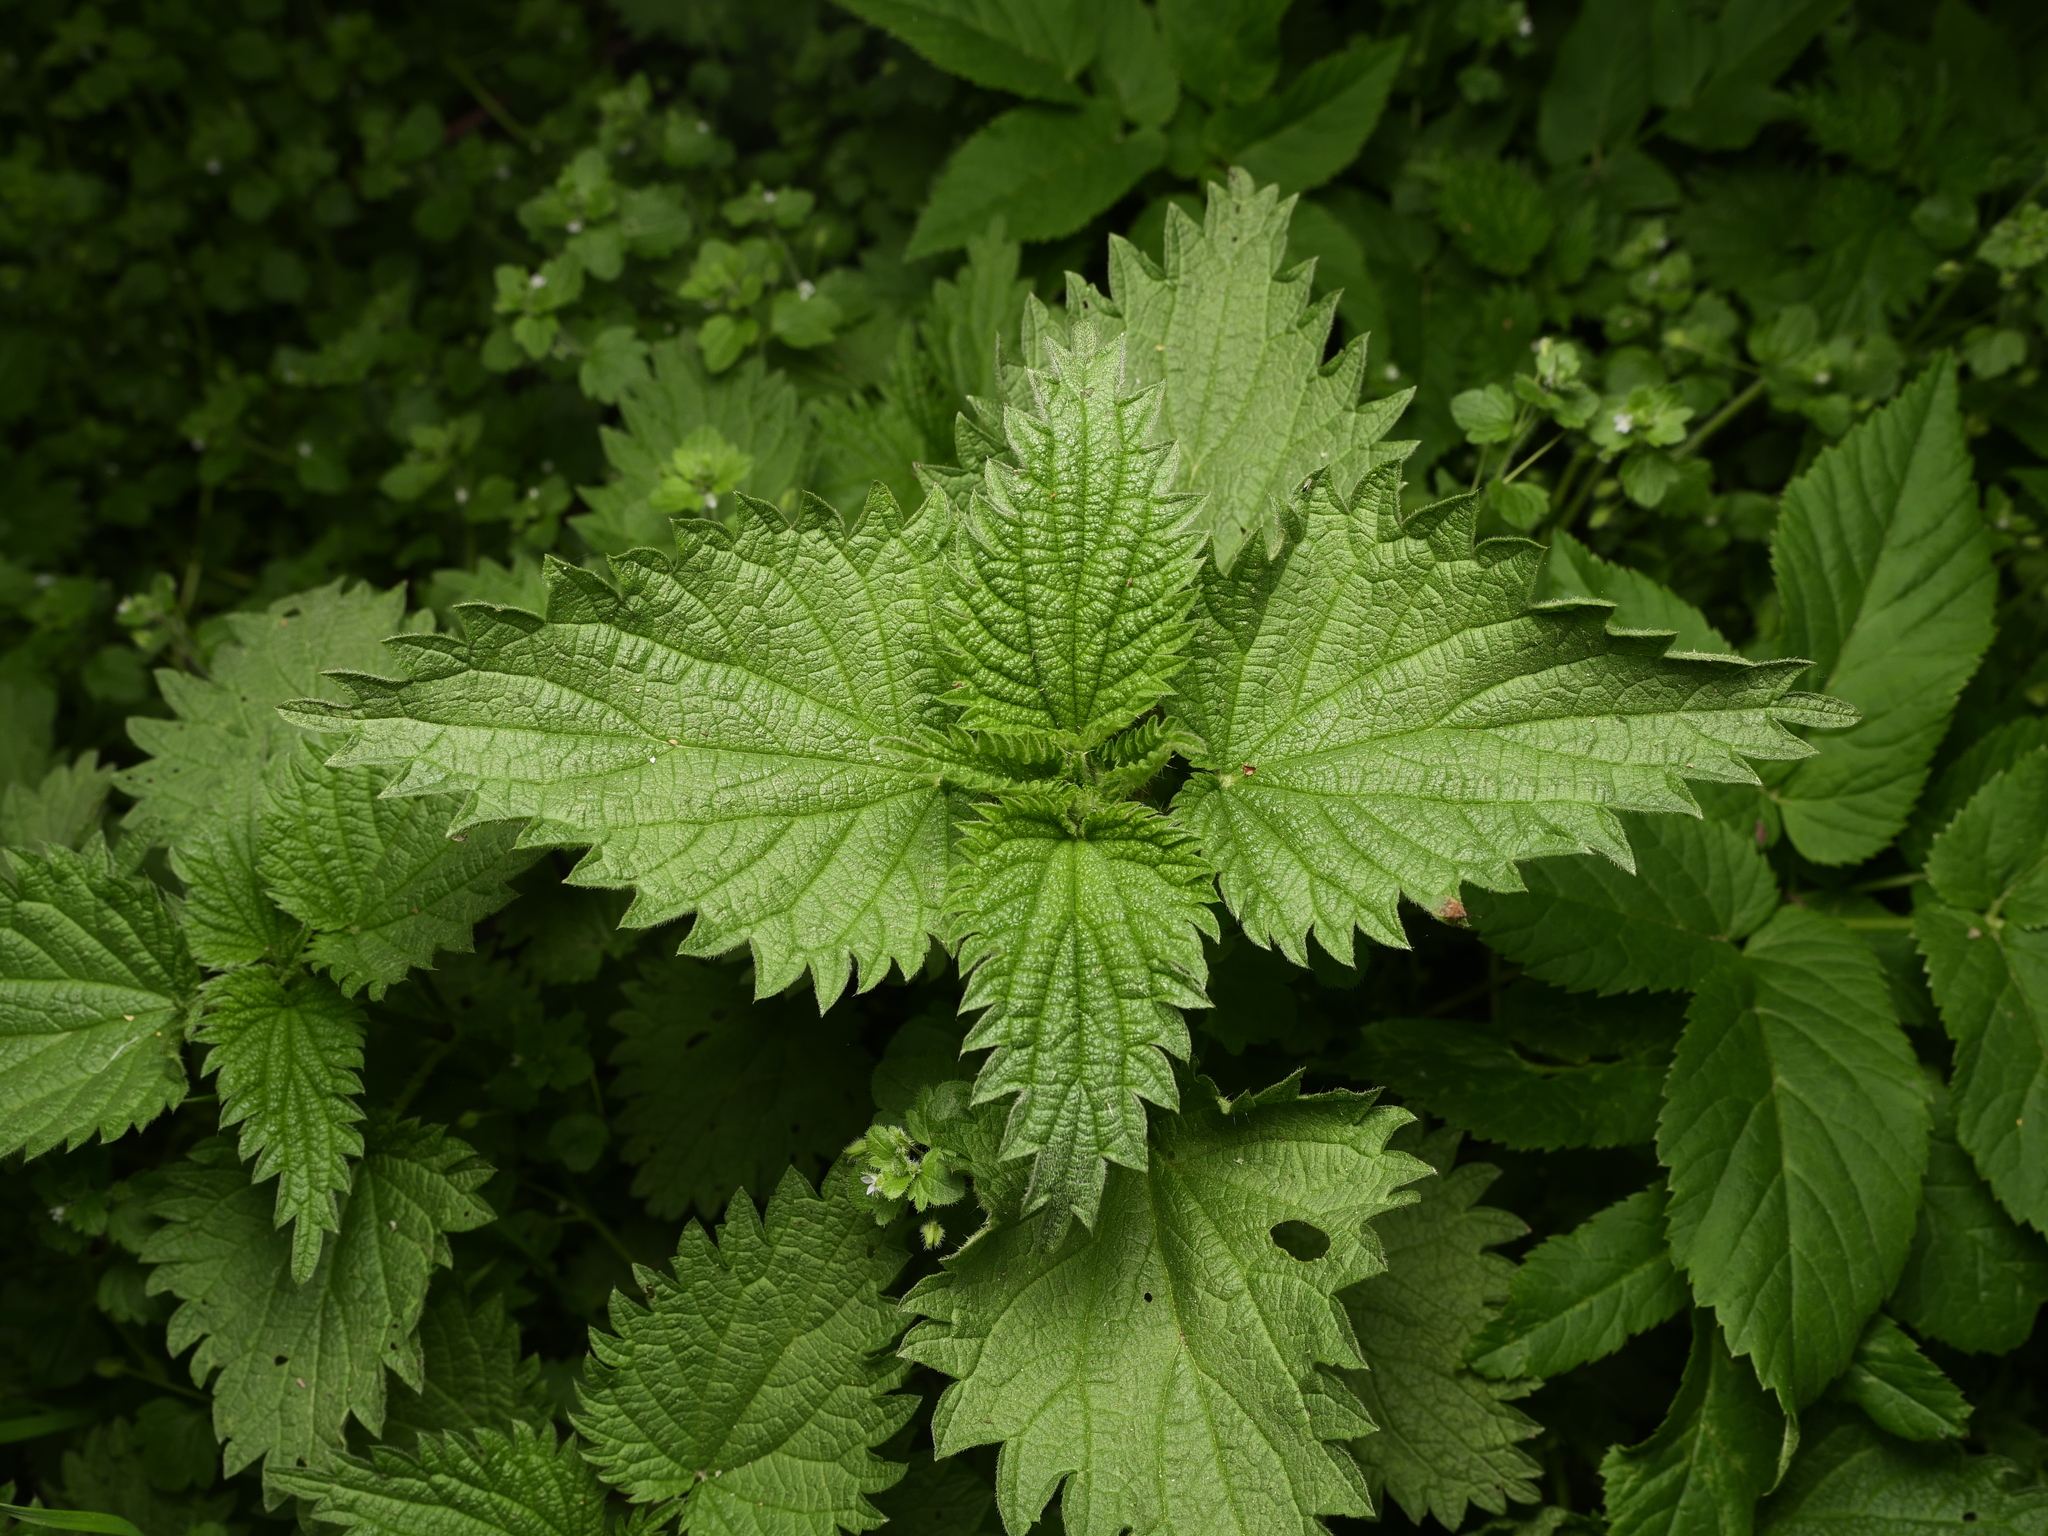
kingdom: Plantae
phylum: Tracheophyta
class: Magnoliopsida
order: Rosales
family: Urticaceae
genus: Urtica
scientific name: Urtica dioica
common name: Common nettle
